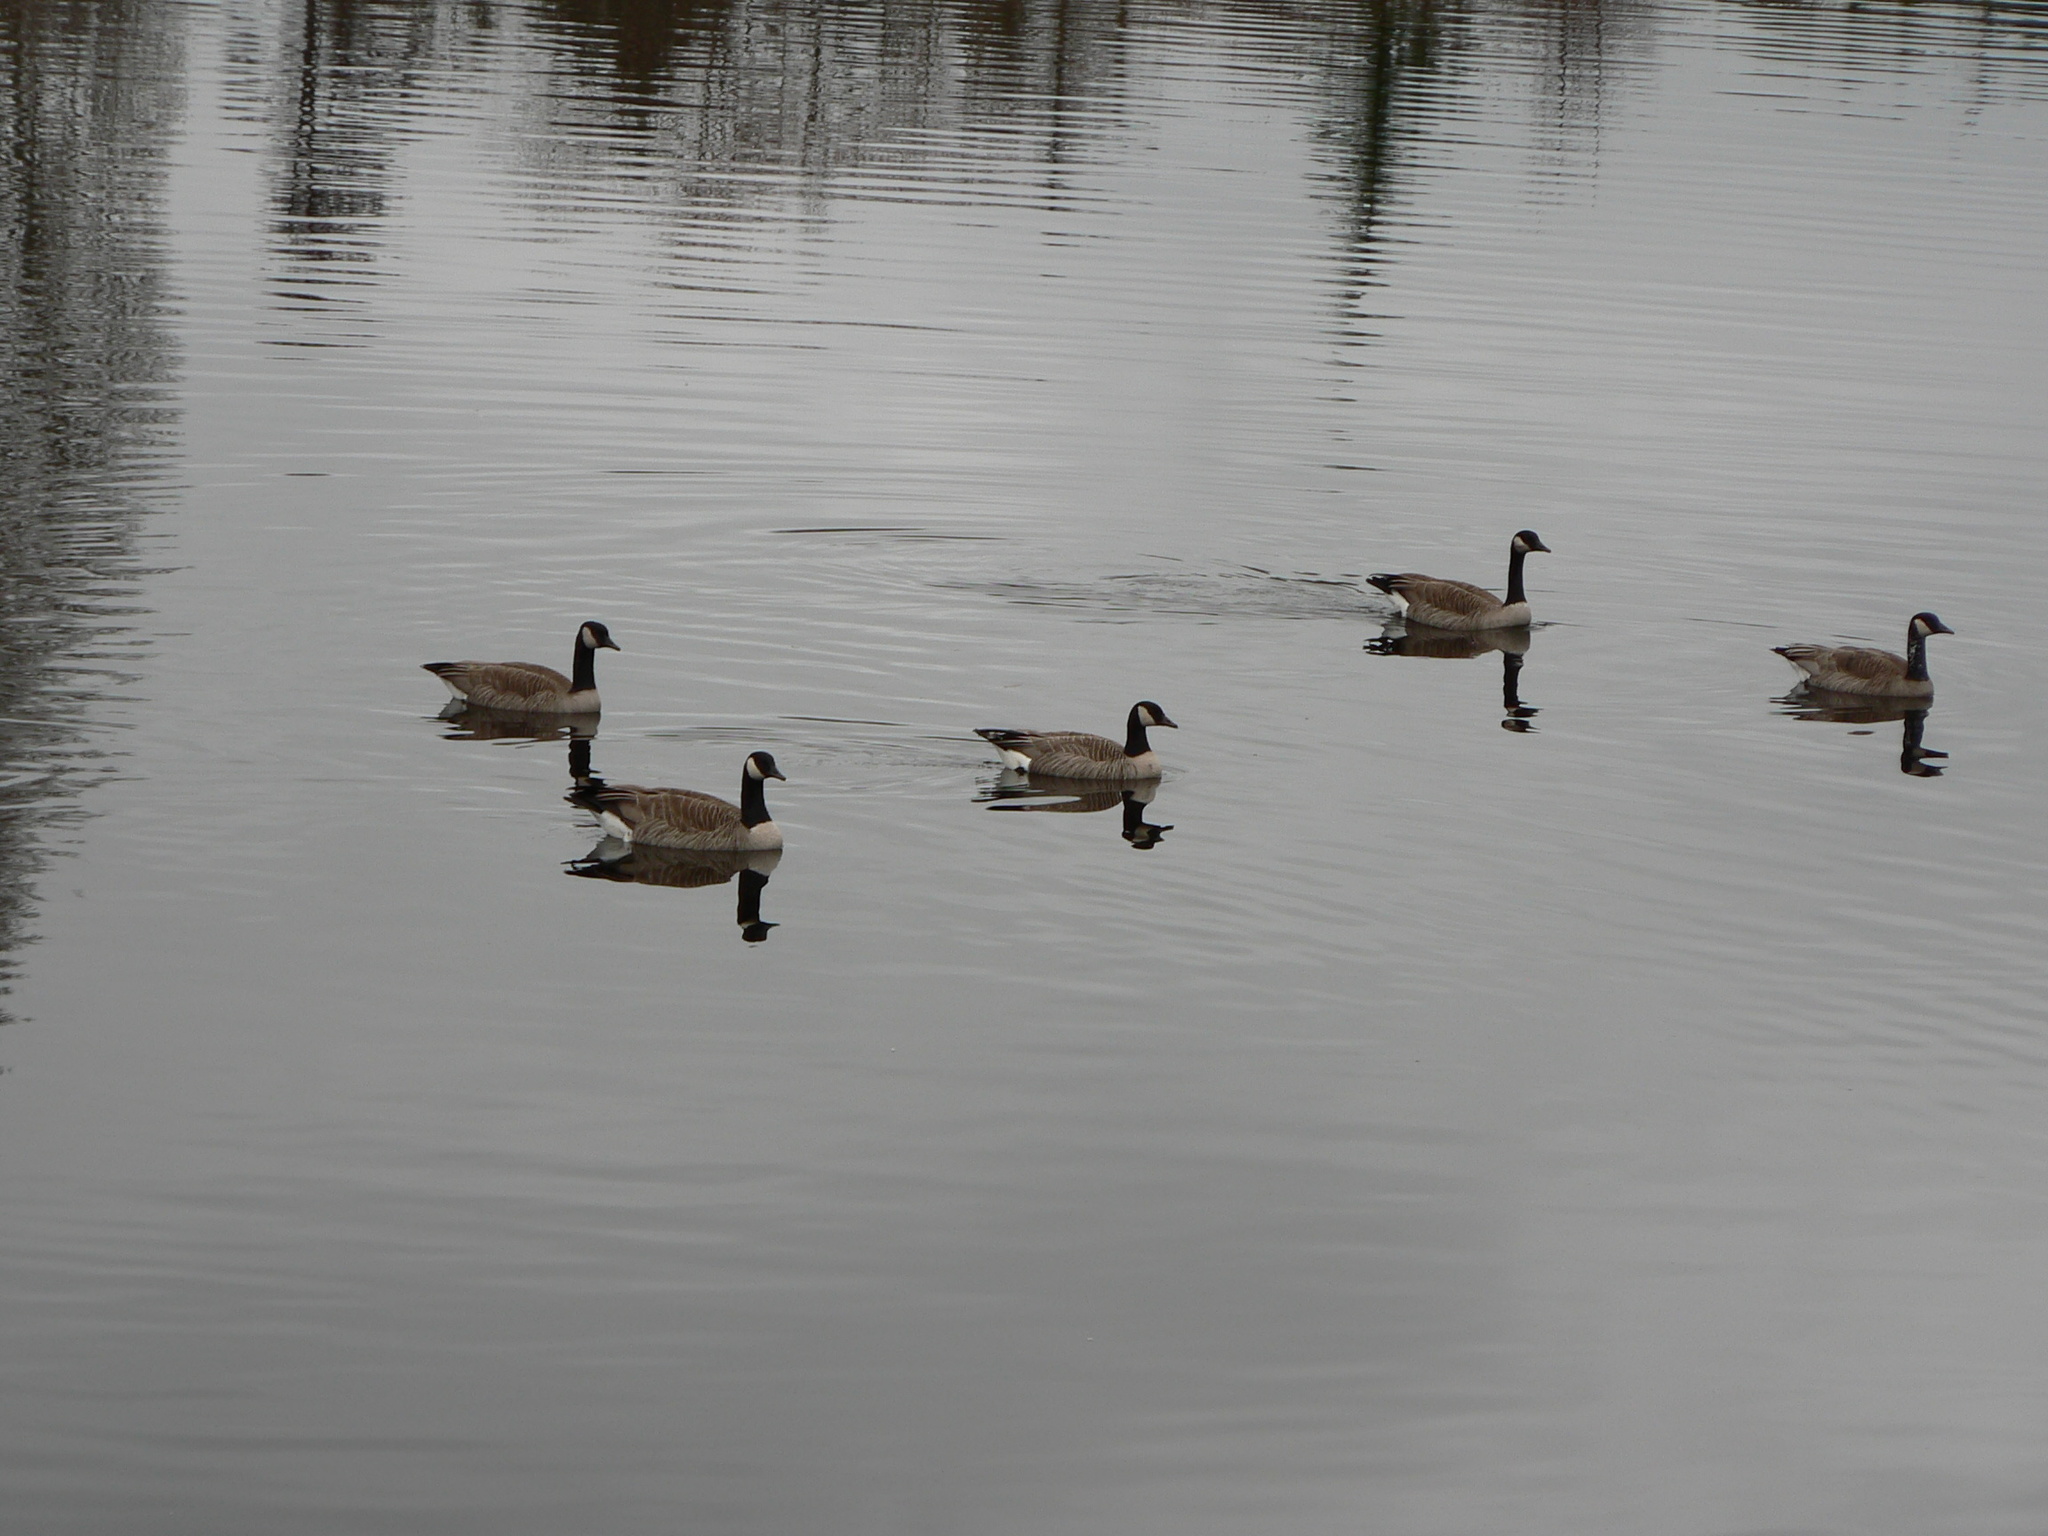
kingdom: Animalia
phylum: Chordata
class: Aves
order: Anseriformes
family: Anatidae
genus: Branta
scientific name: Branta canadensis
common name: Canada goose
